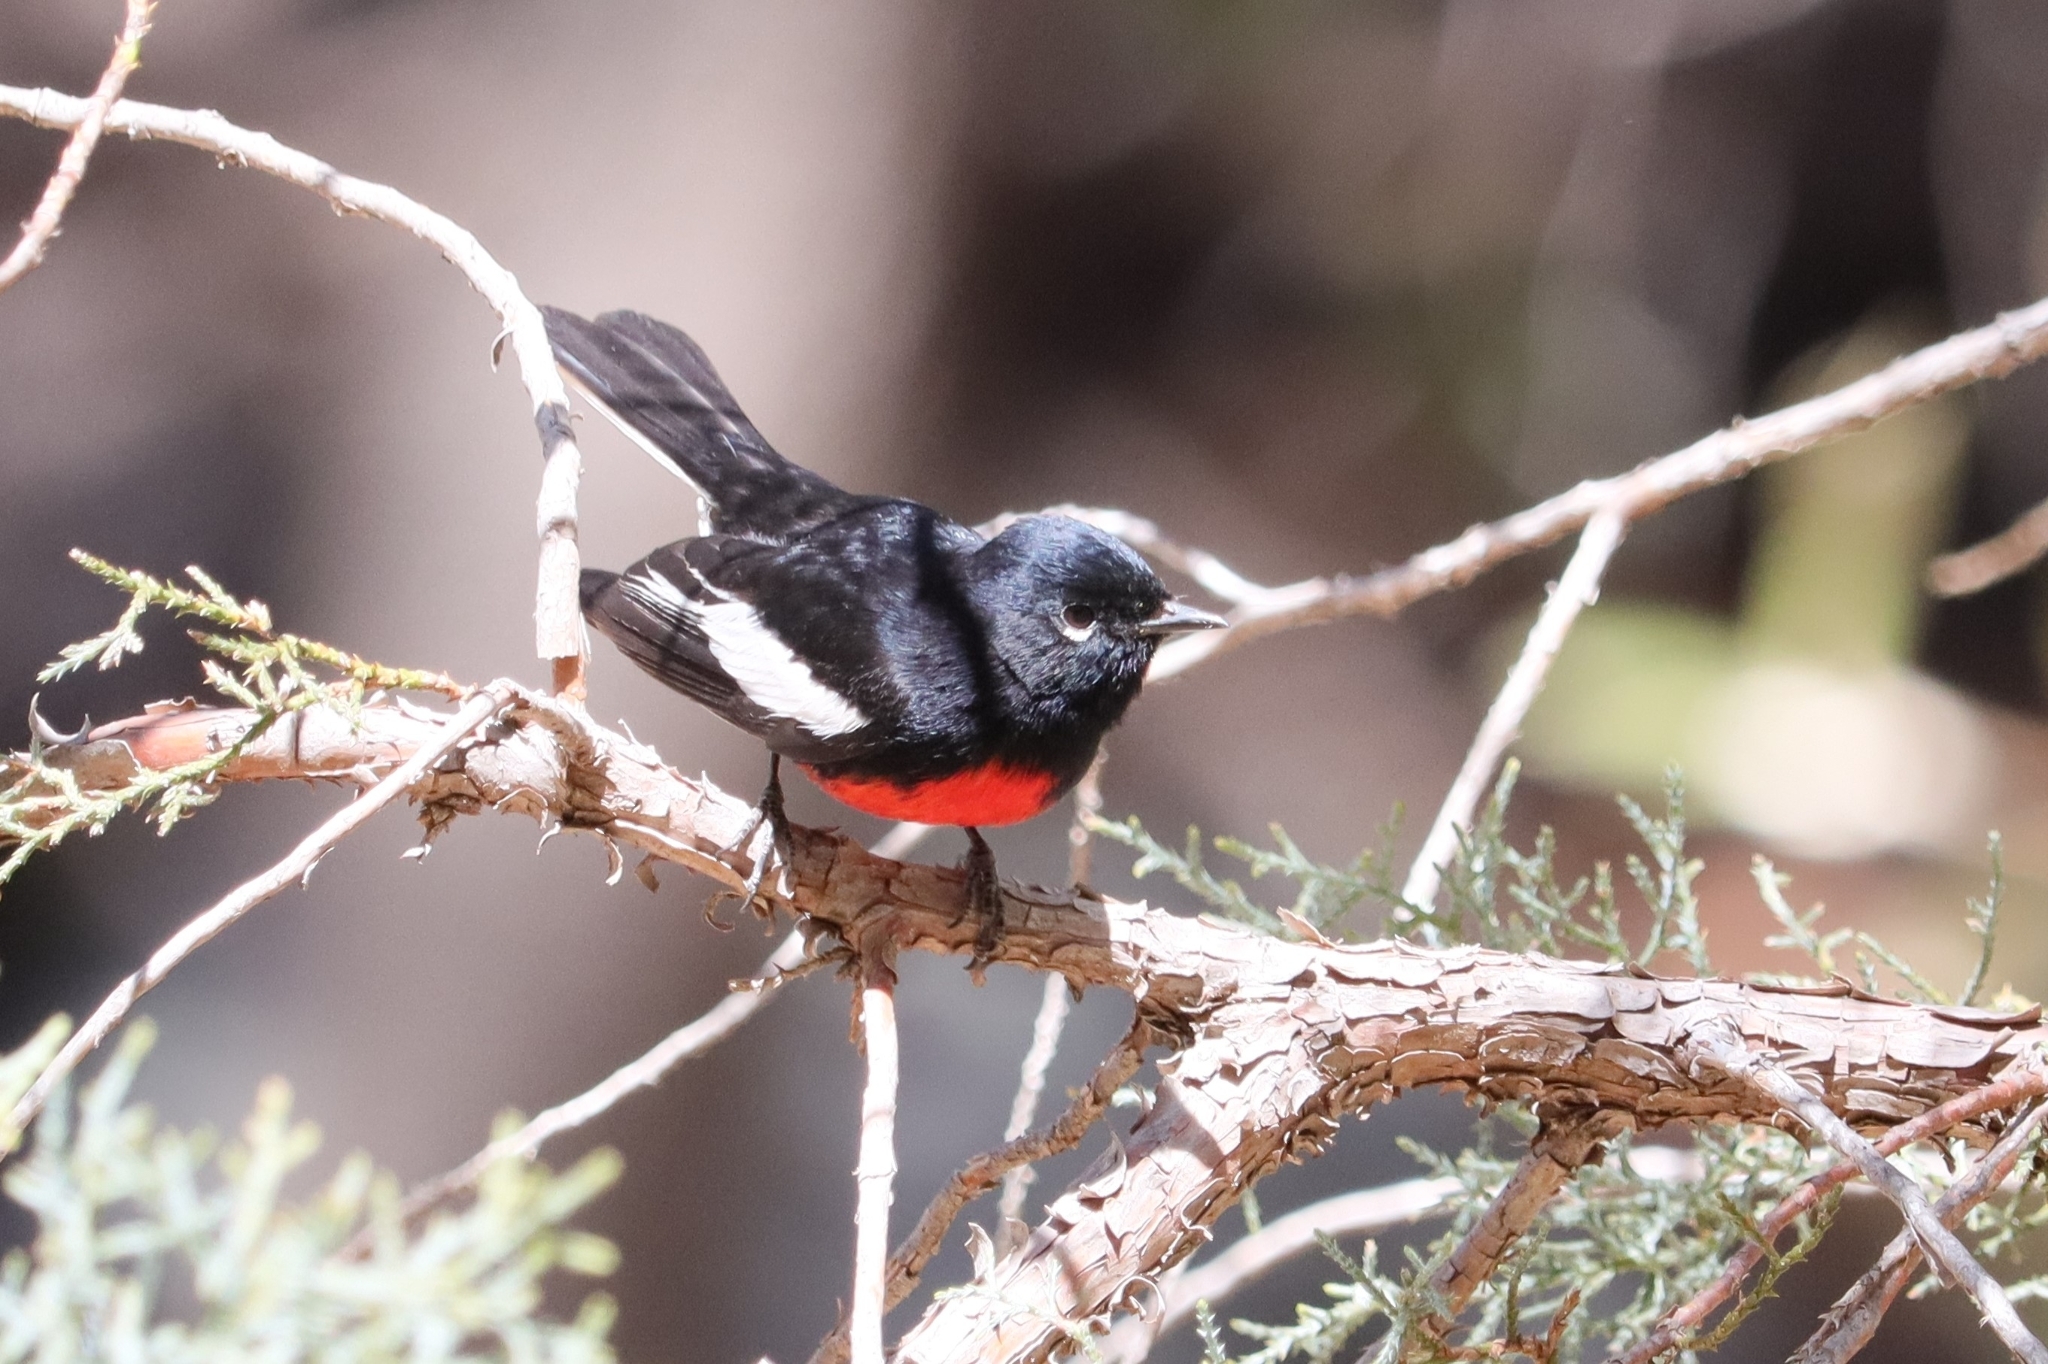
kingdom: Animalia
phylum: Chordata
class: Aves
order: Passeriformes
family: Parulidae
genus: Myioborus
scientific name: Myioborus pictus
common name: Painted whitestart
